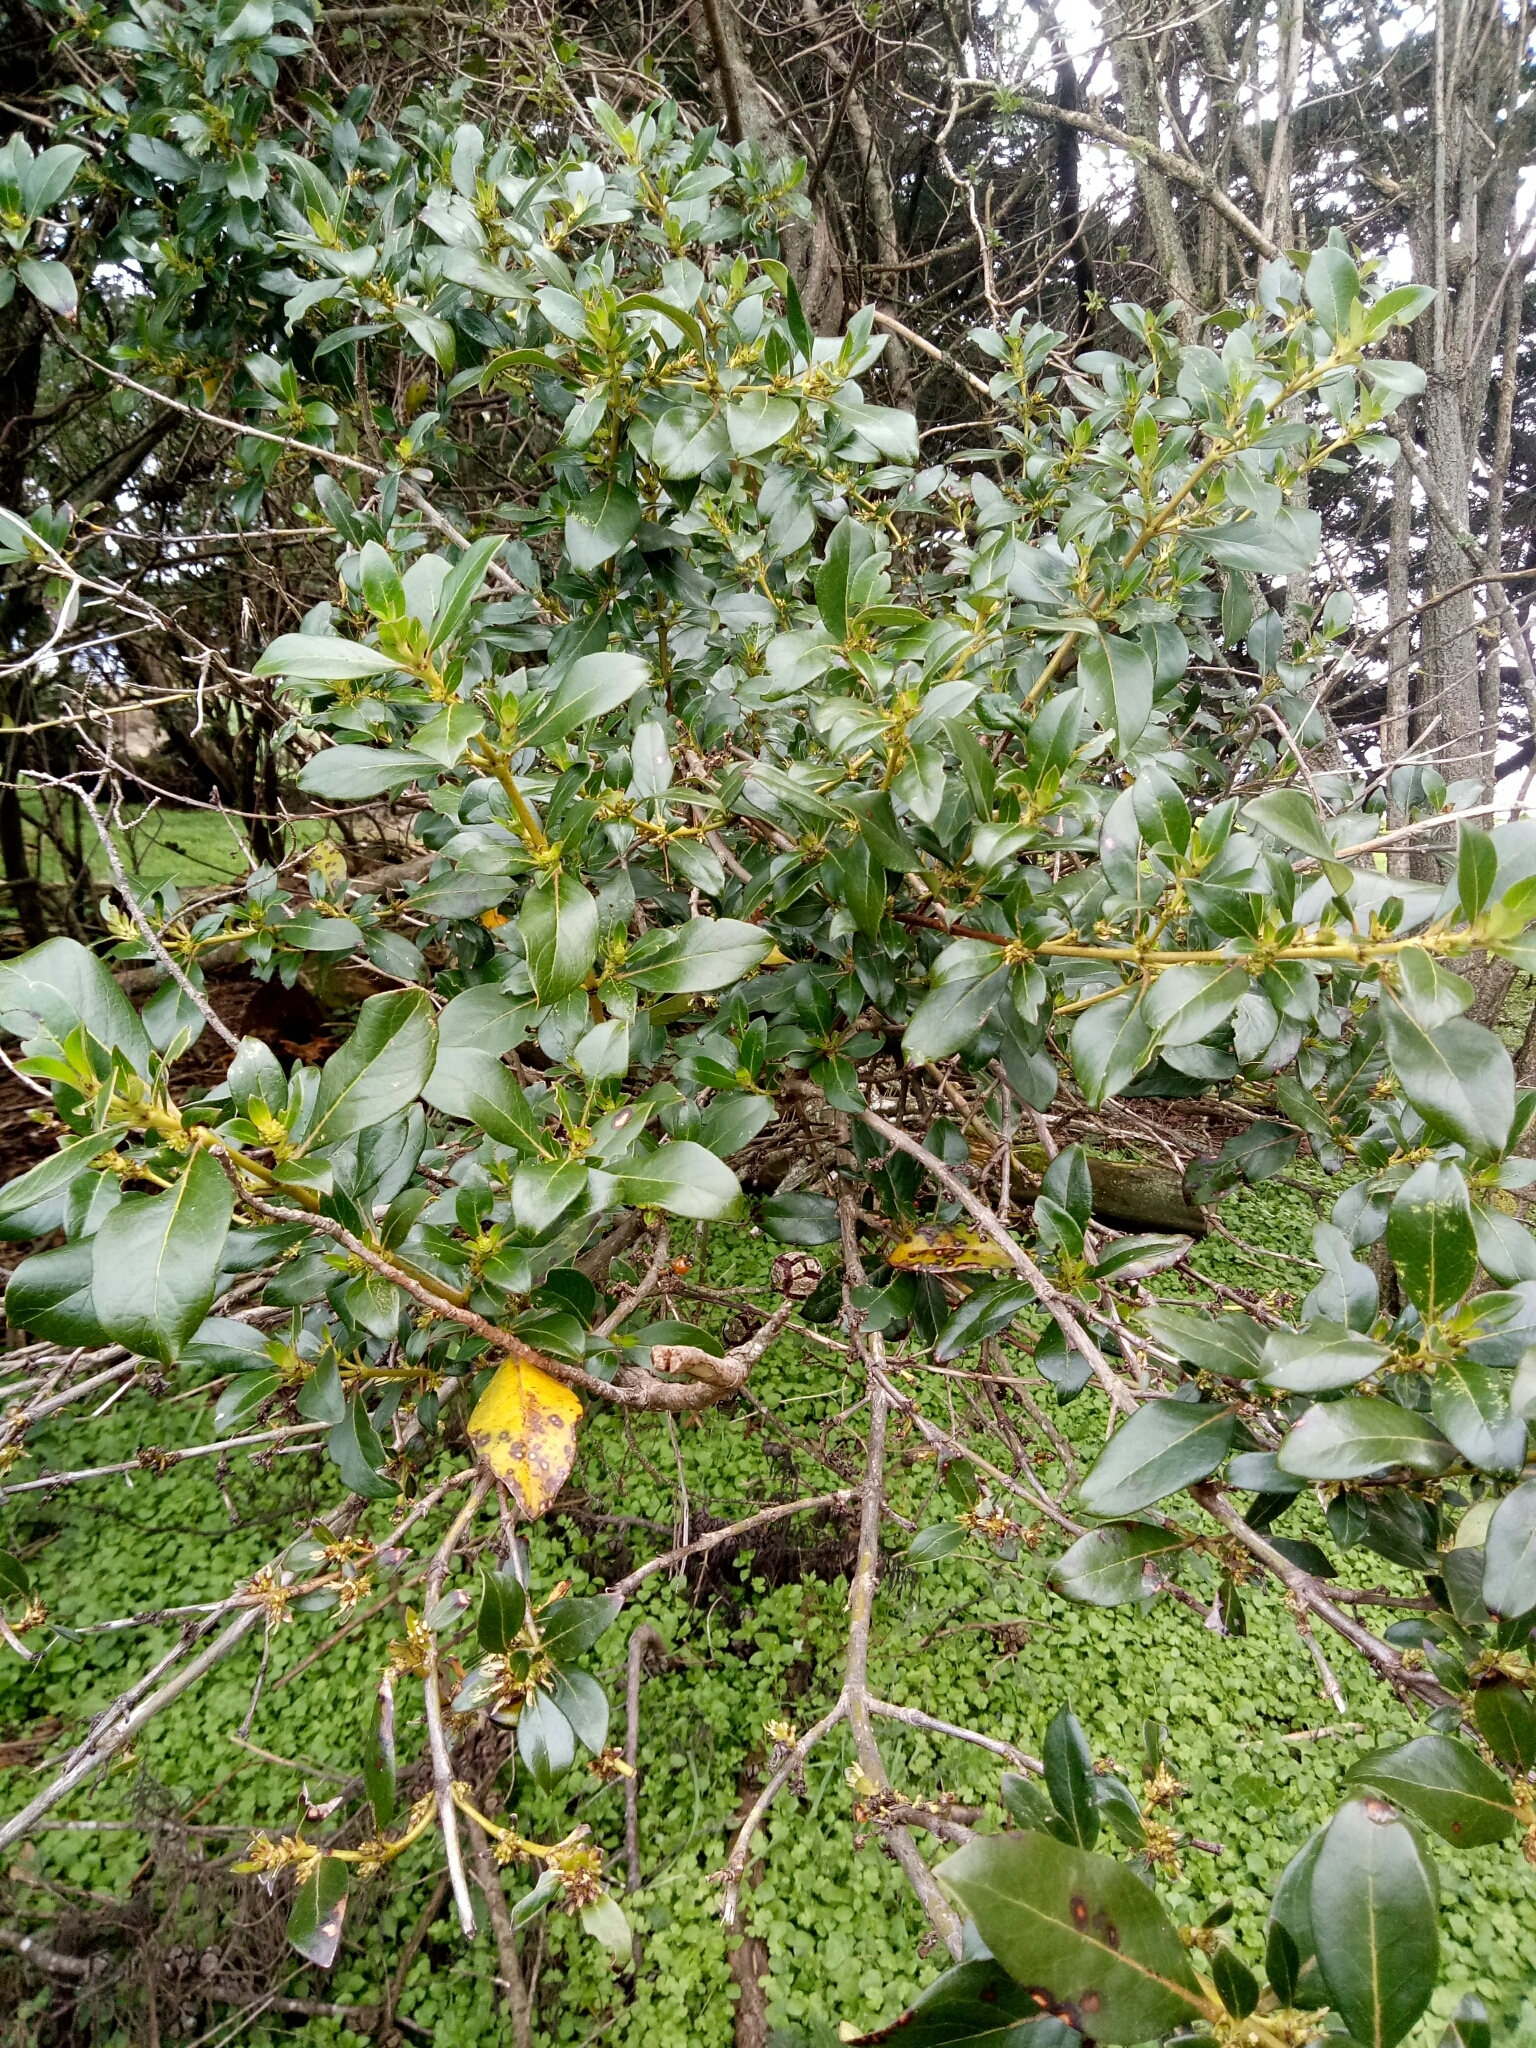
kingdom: Plantae
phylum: Tracheophyta
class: Magnoliopsida
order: Gentianales
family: Rubiaceae
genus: Coprosma
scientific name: Coprosma robusta
